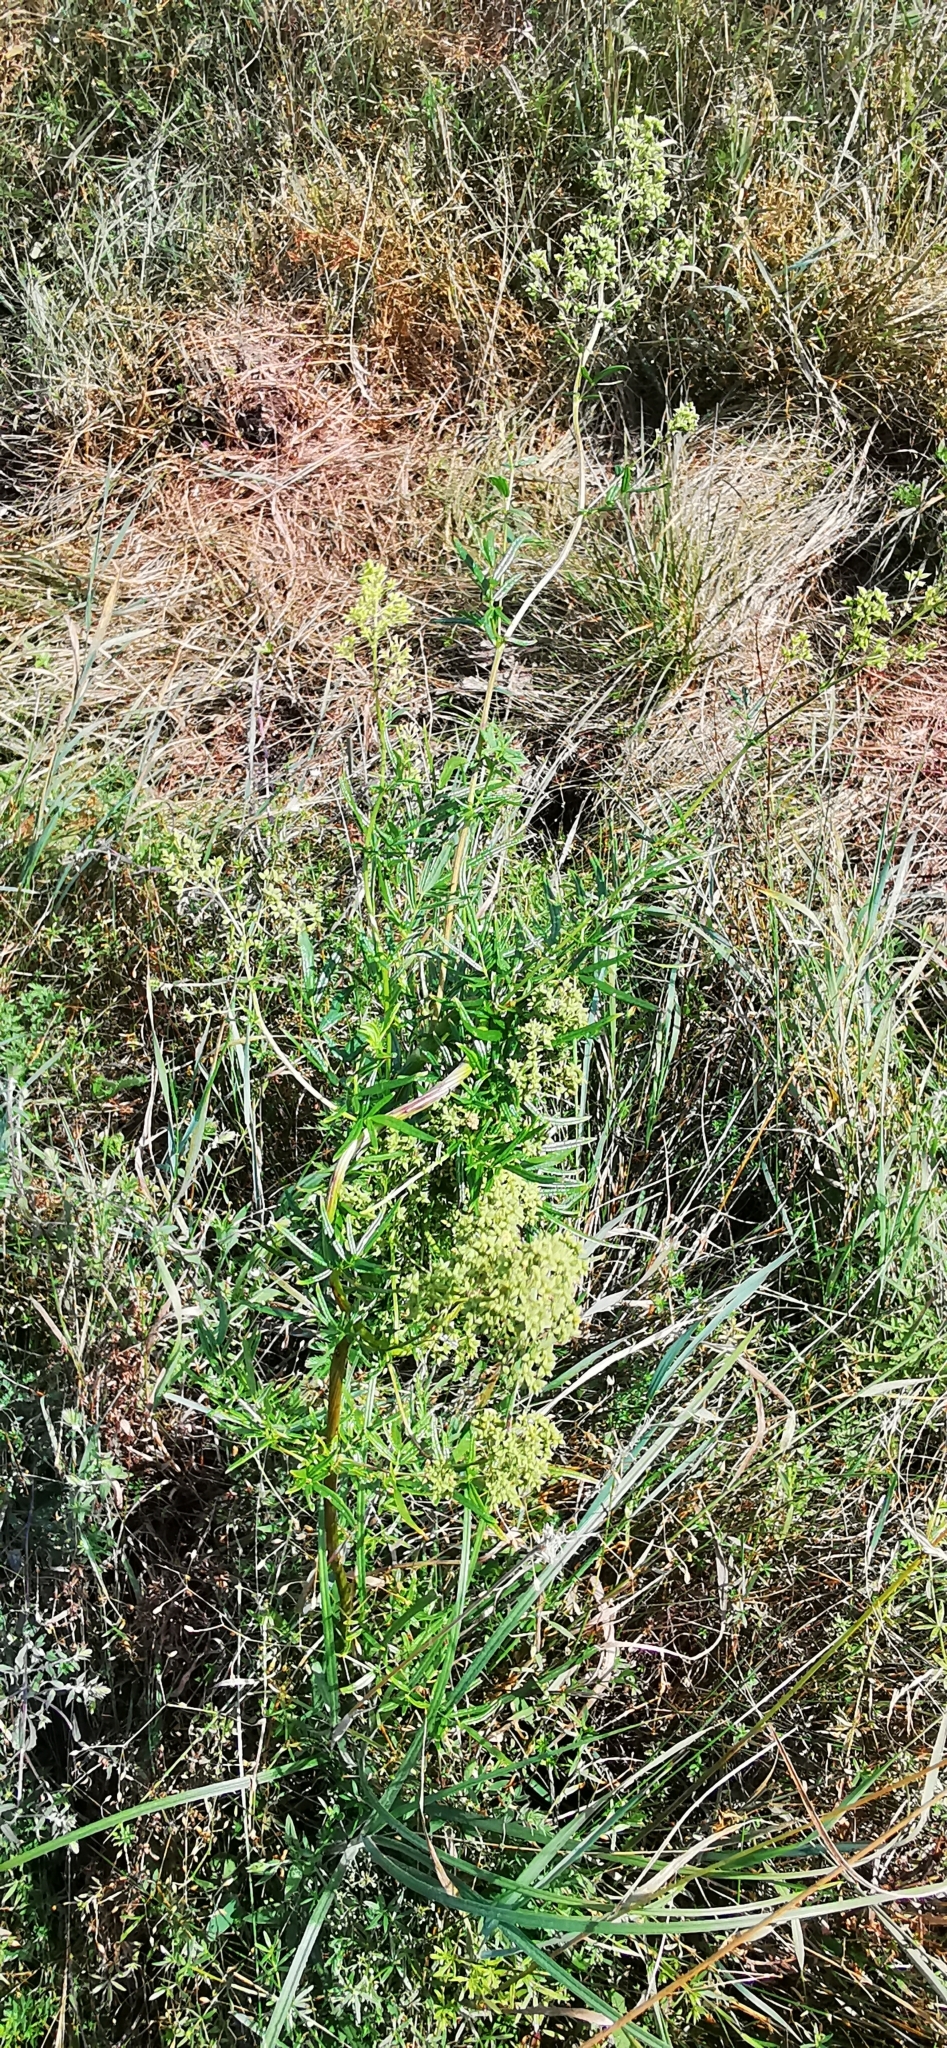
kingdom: Plantae
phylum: Tracheophyta
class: Magnoliopsida
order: Ranunculales
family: Ranunculaceae
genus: Thalictrum
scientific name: Thalictrum flavum
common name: Common meadow-rue
